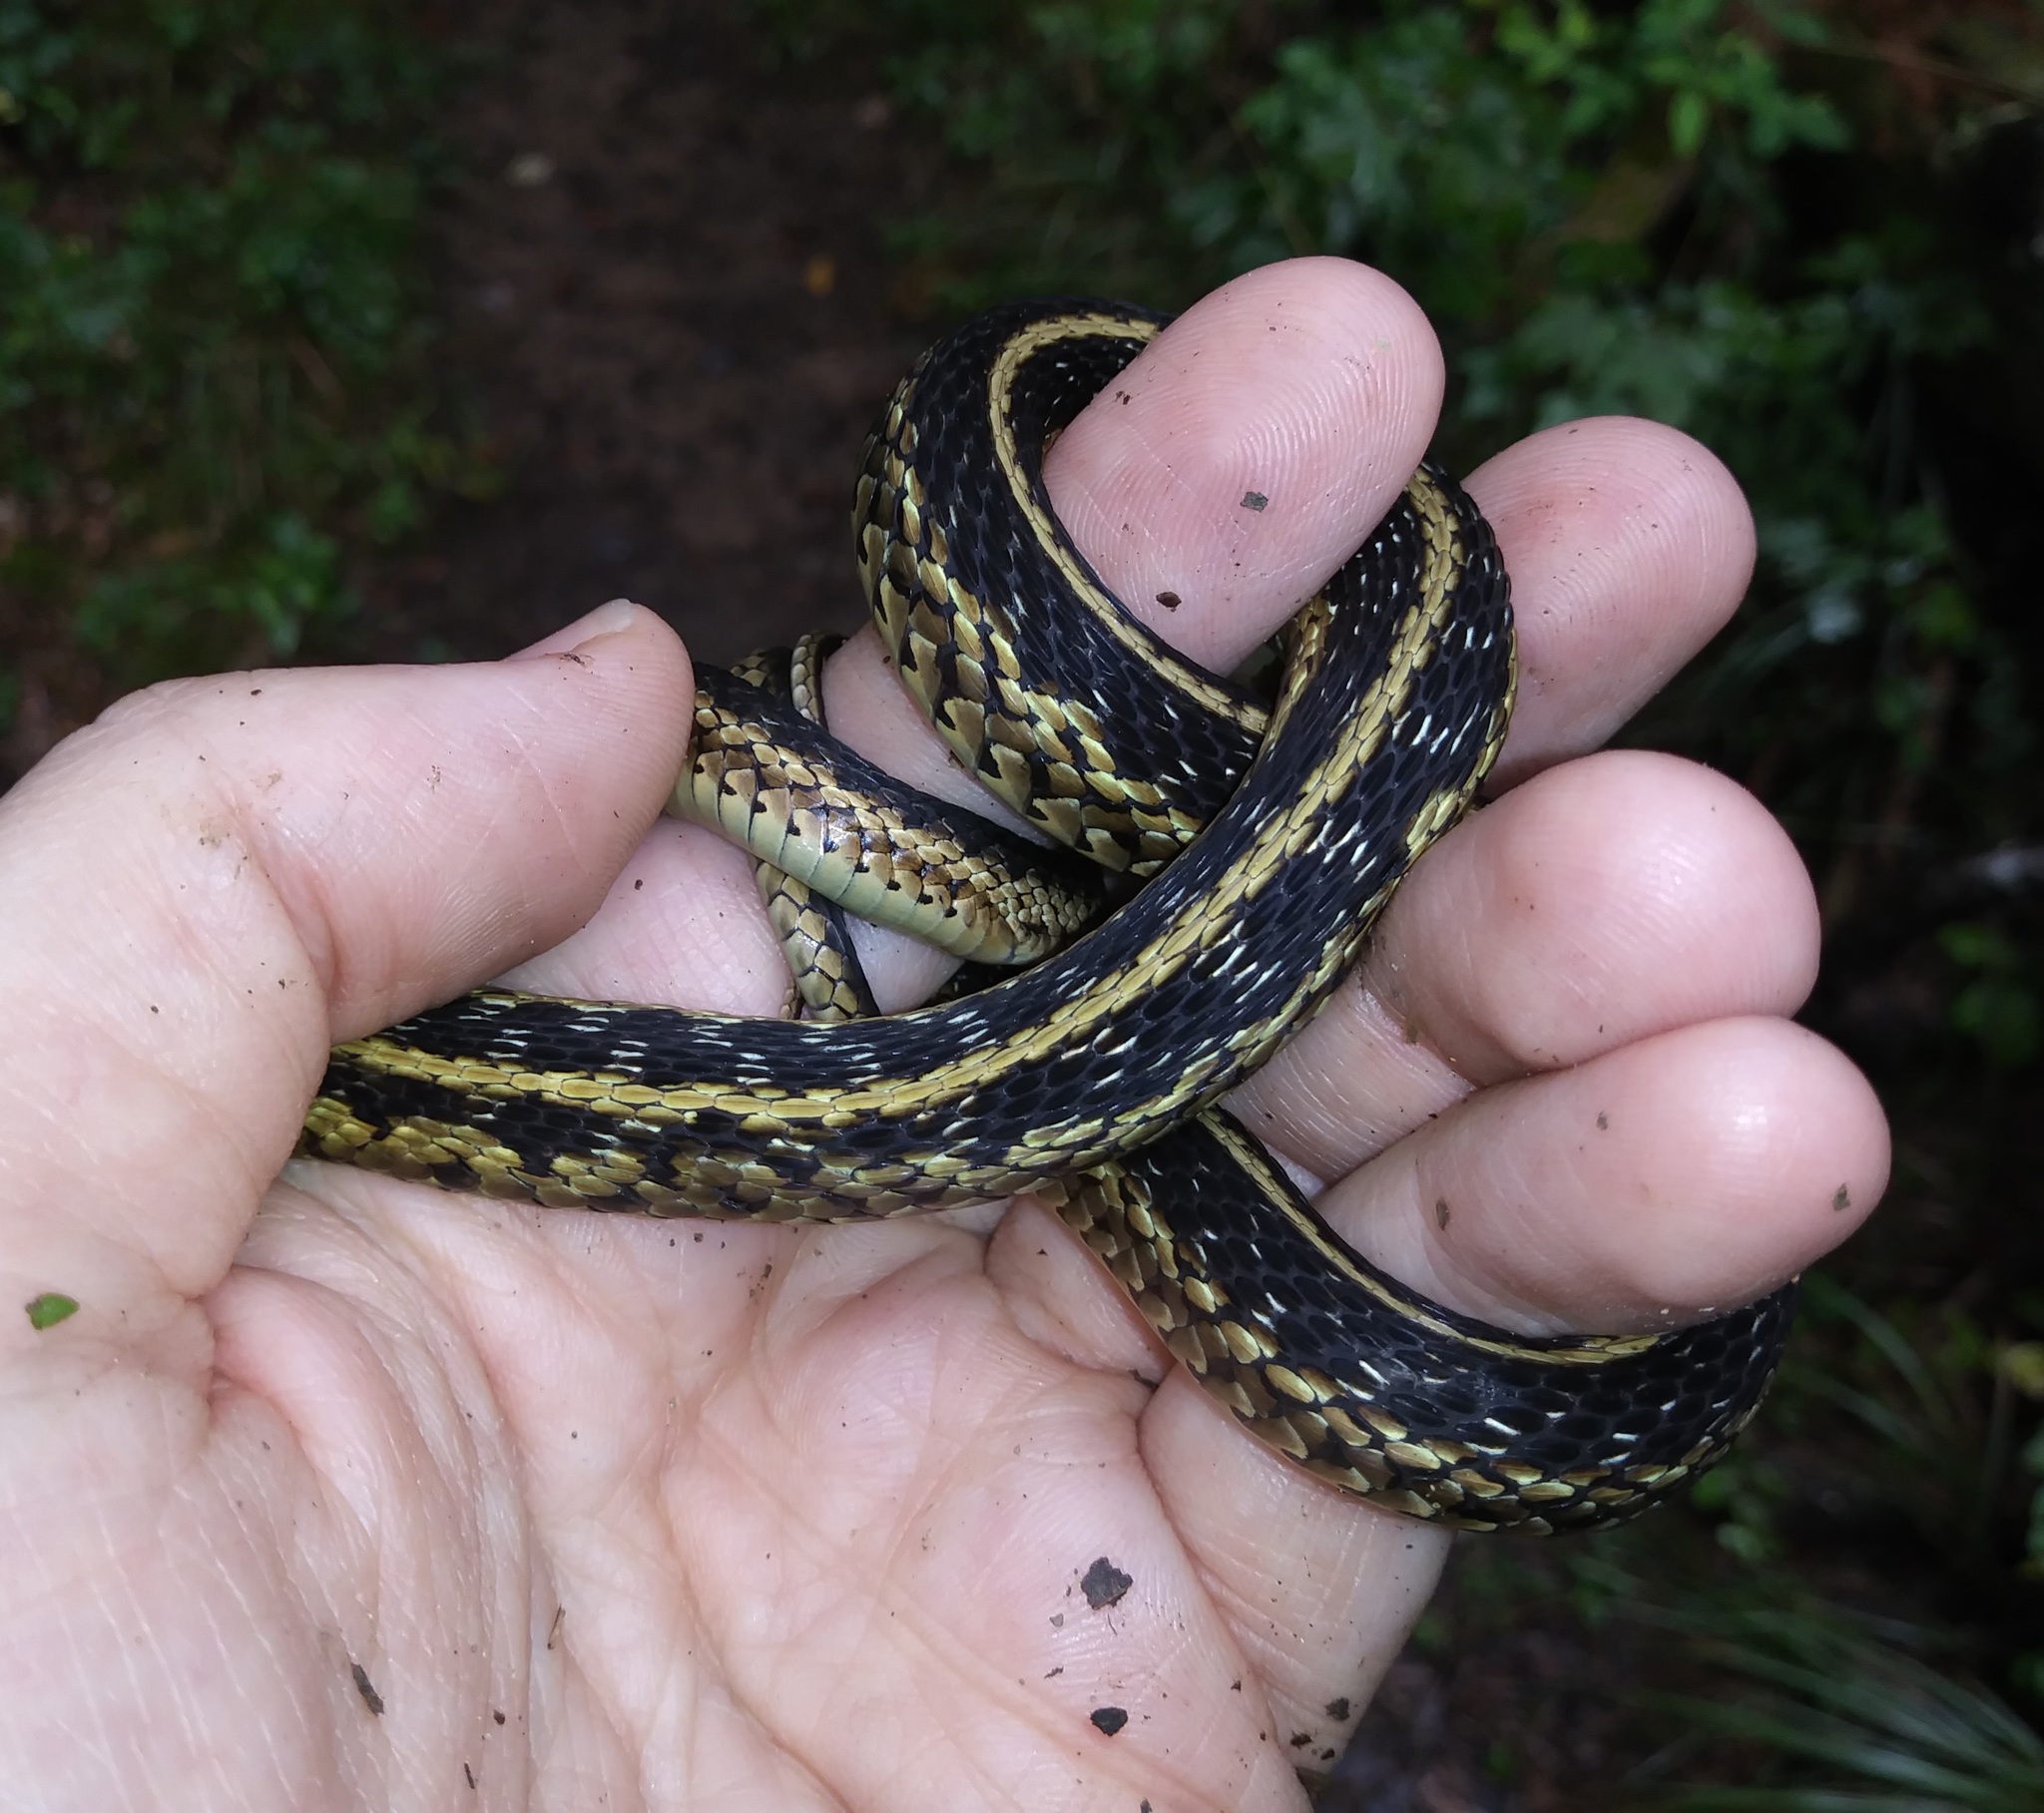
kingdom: Animalia
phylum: Chordata
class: Squamata
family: Colubridae
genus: Thamnophis
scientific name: Thamnophis sirtalis
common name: Common garter snake
